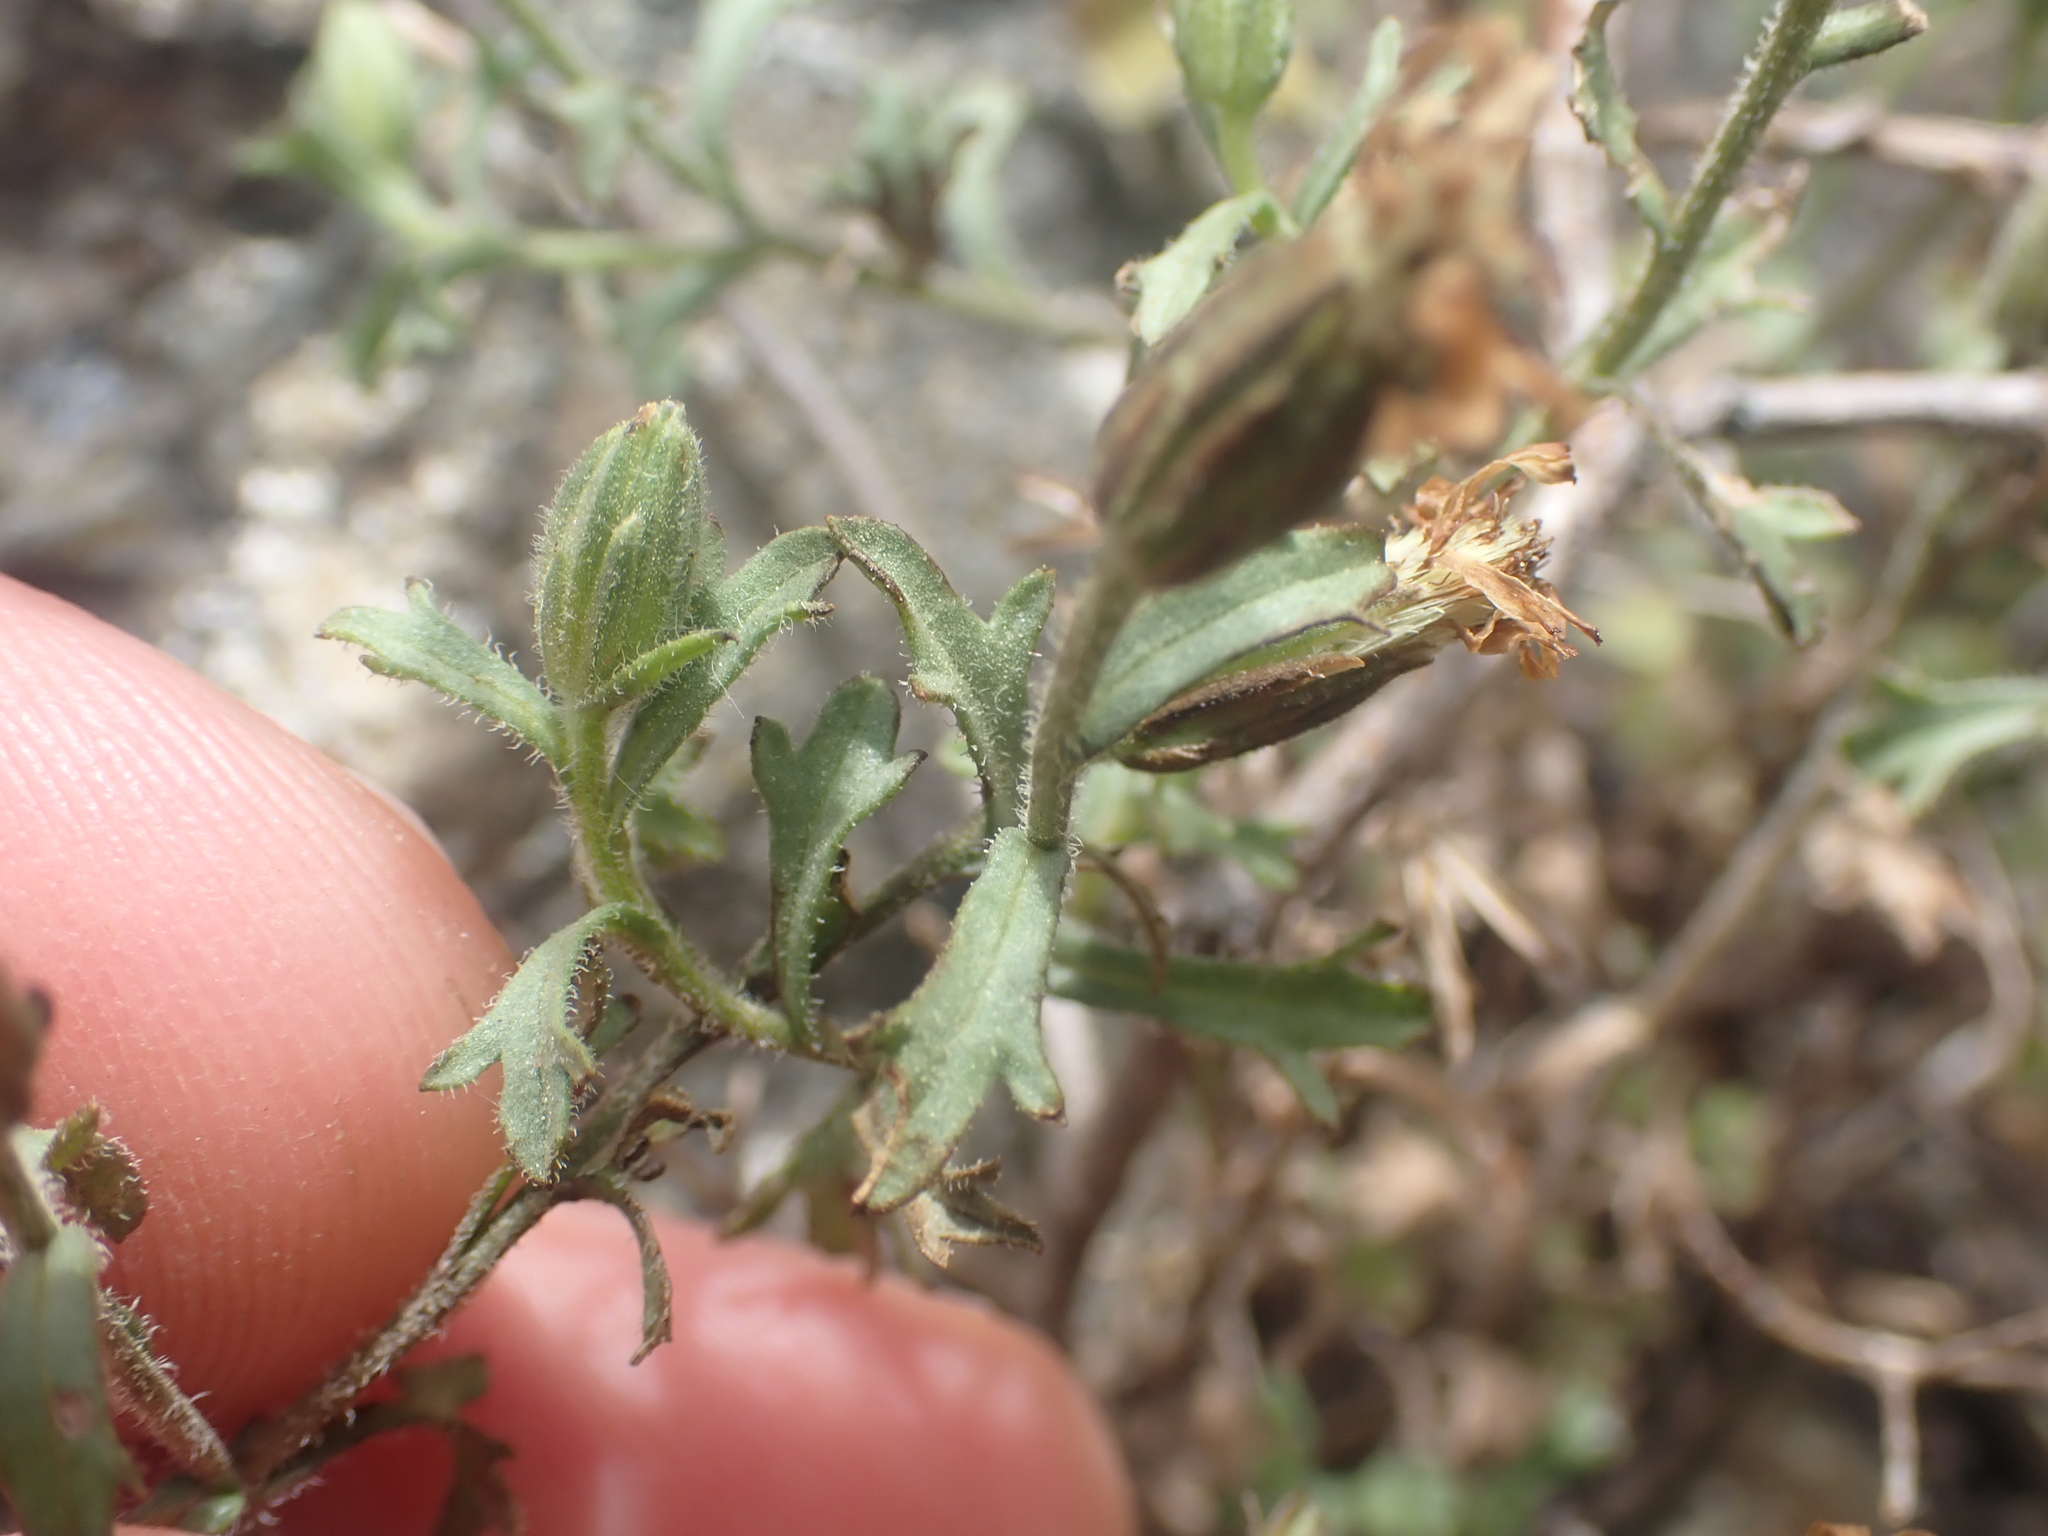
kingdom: Plantae
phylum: Tracheophyta
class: Magnoliopsida
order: Asterales
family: Asteraceae
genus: Vittadinia
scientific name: Vittadinia australis
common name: White fuzzweed
